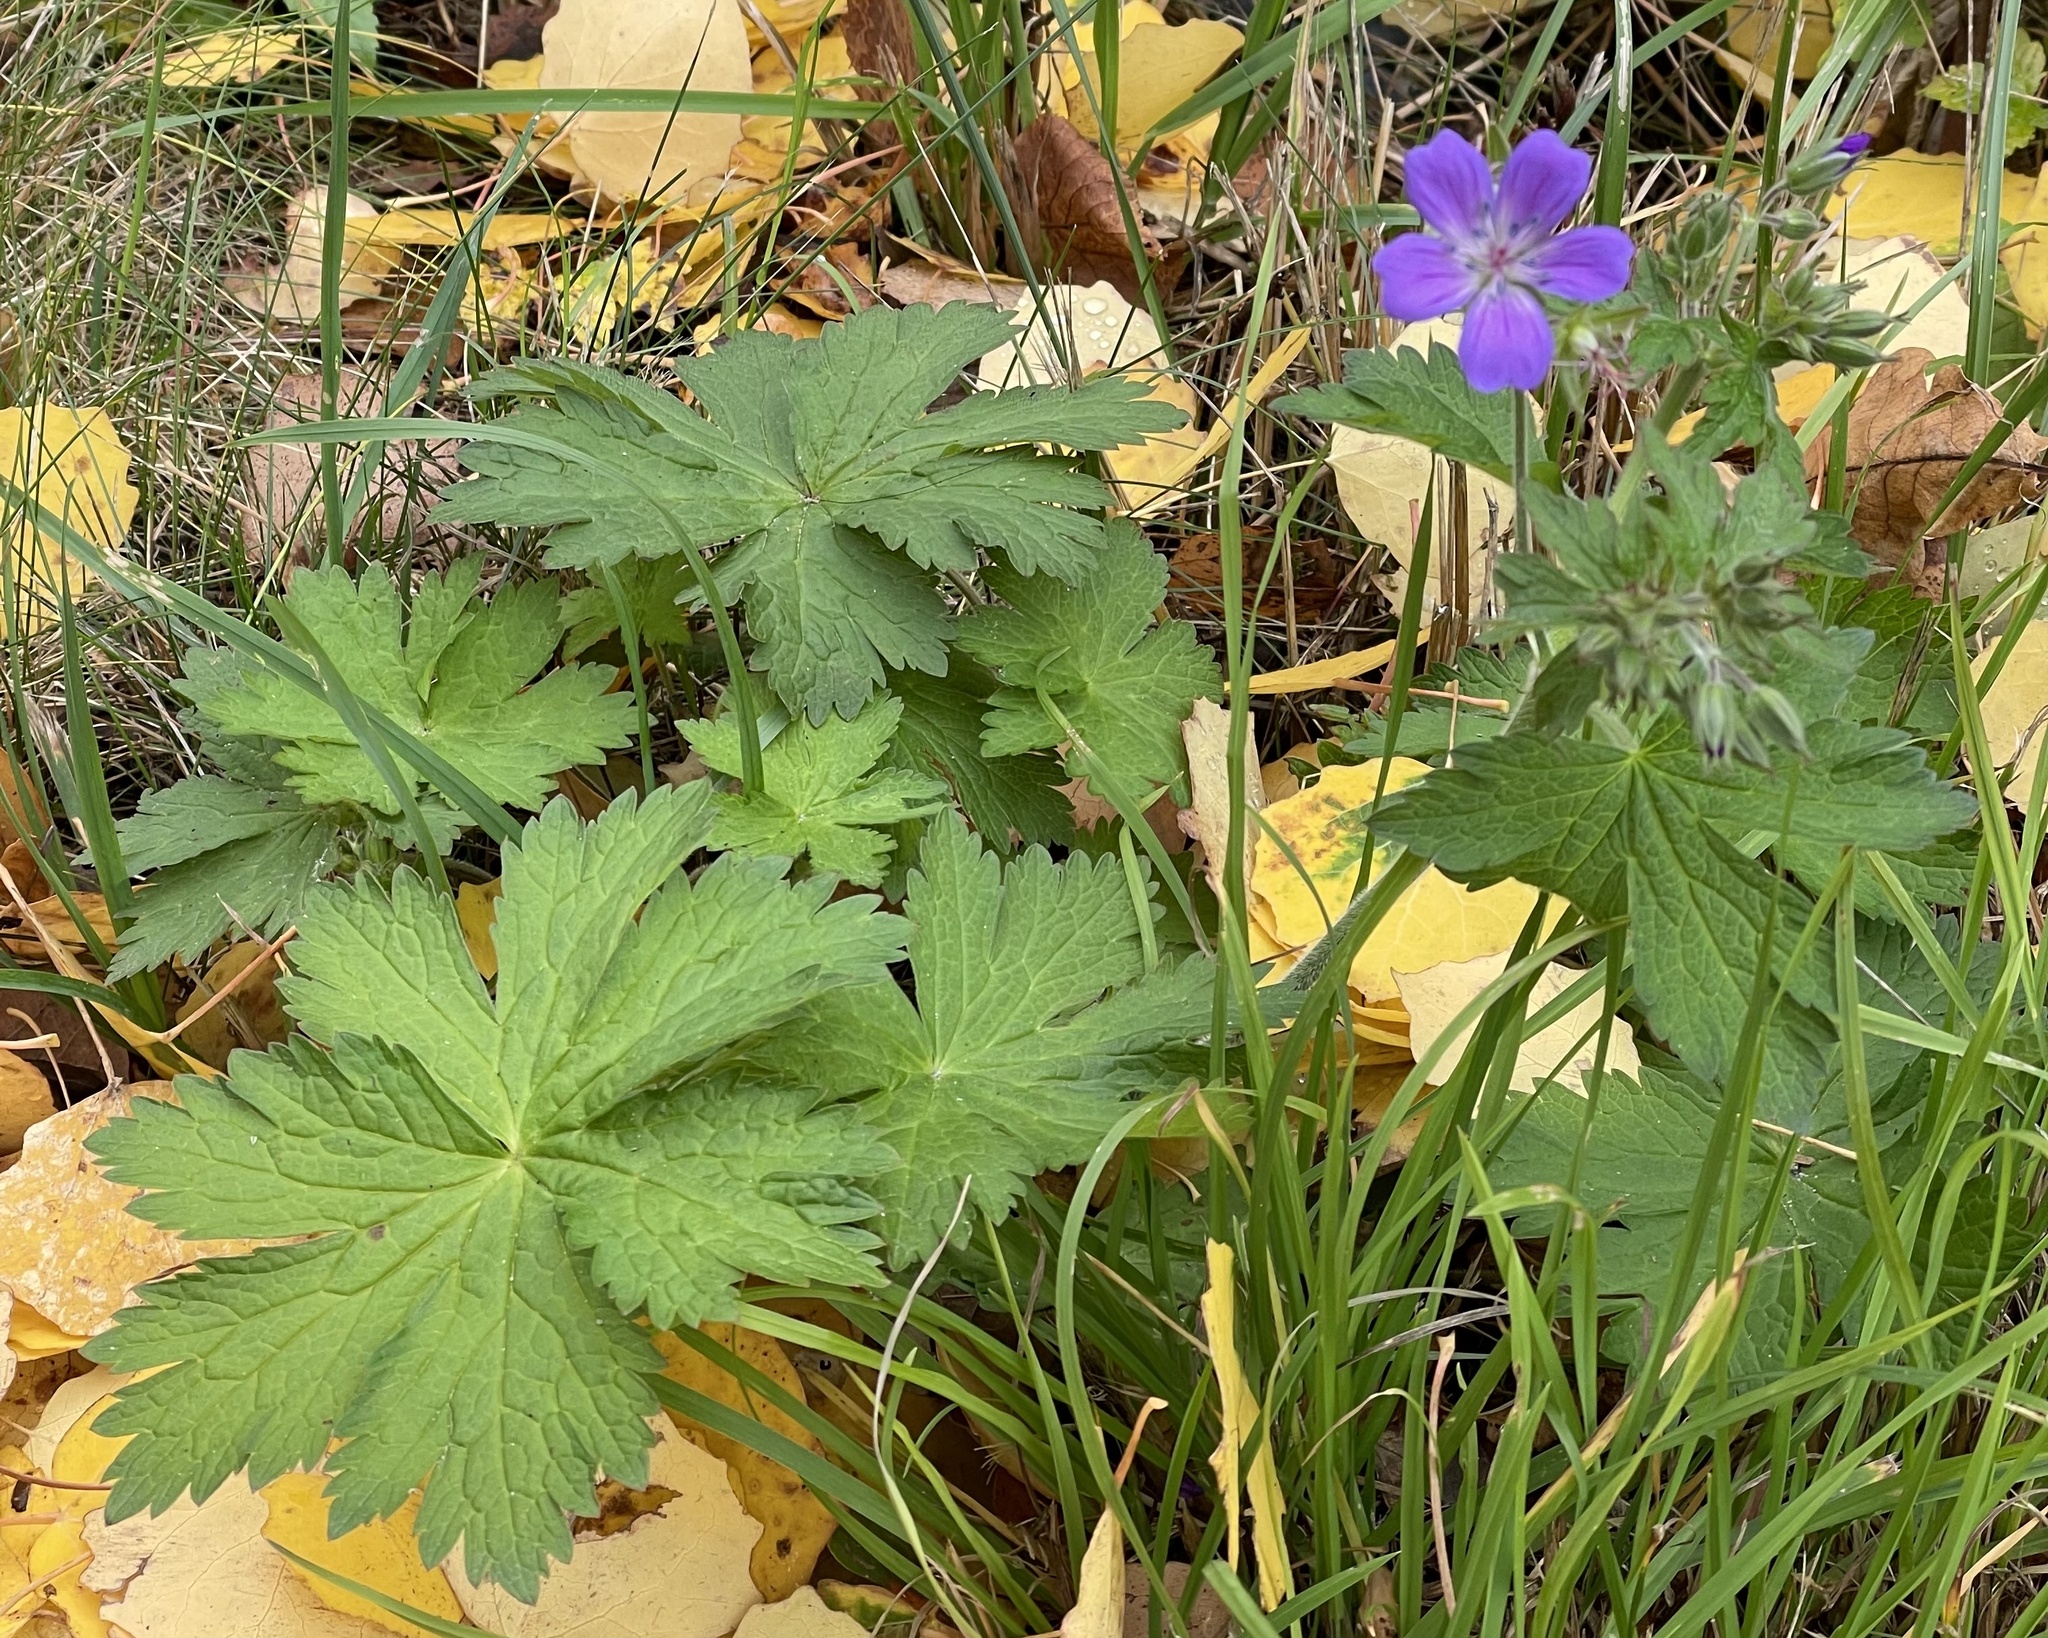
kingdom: Plantae
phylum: Tracheophyta
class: Magnoliopsida
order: Geraniales
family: Geraniaceae
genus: Geranium
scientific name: Geranium sylvaticum
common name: Wood crane's-bill
